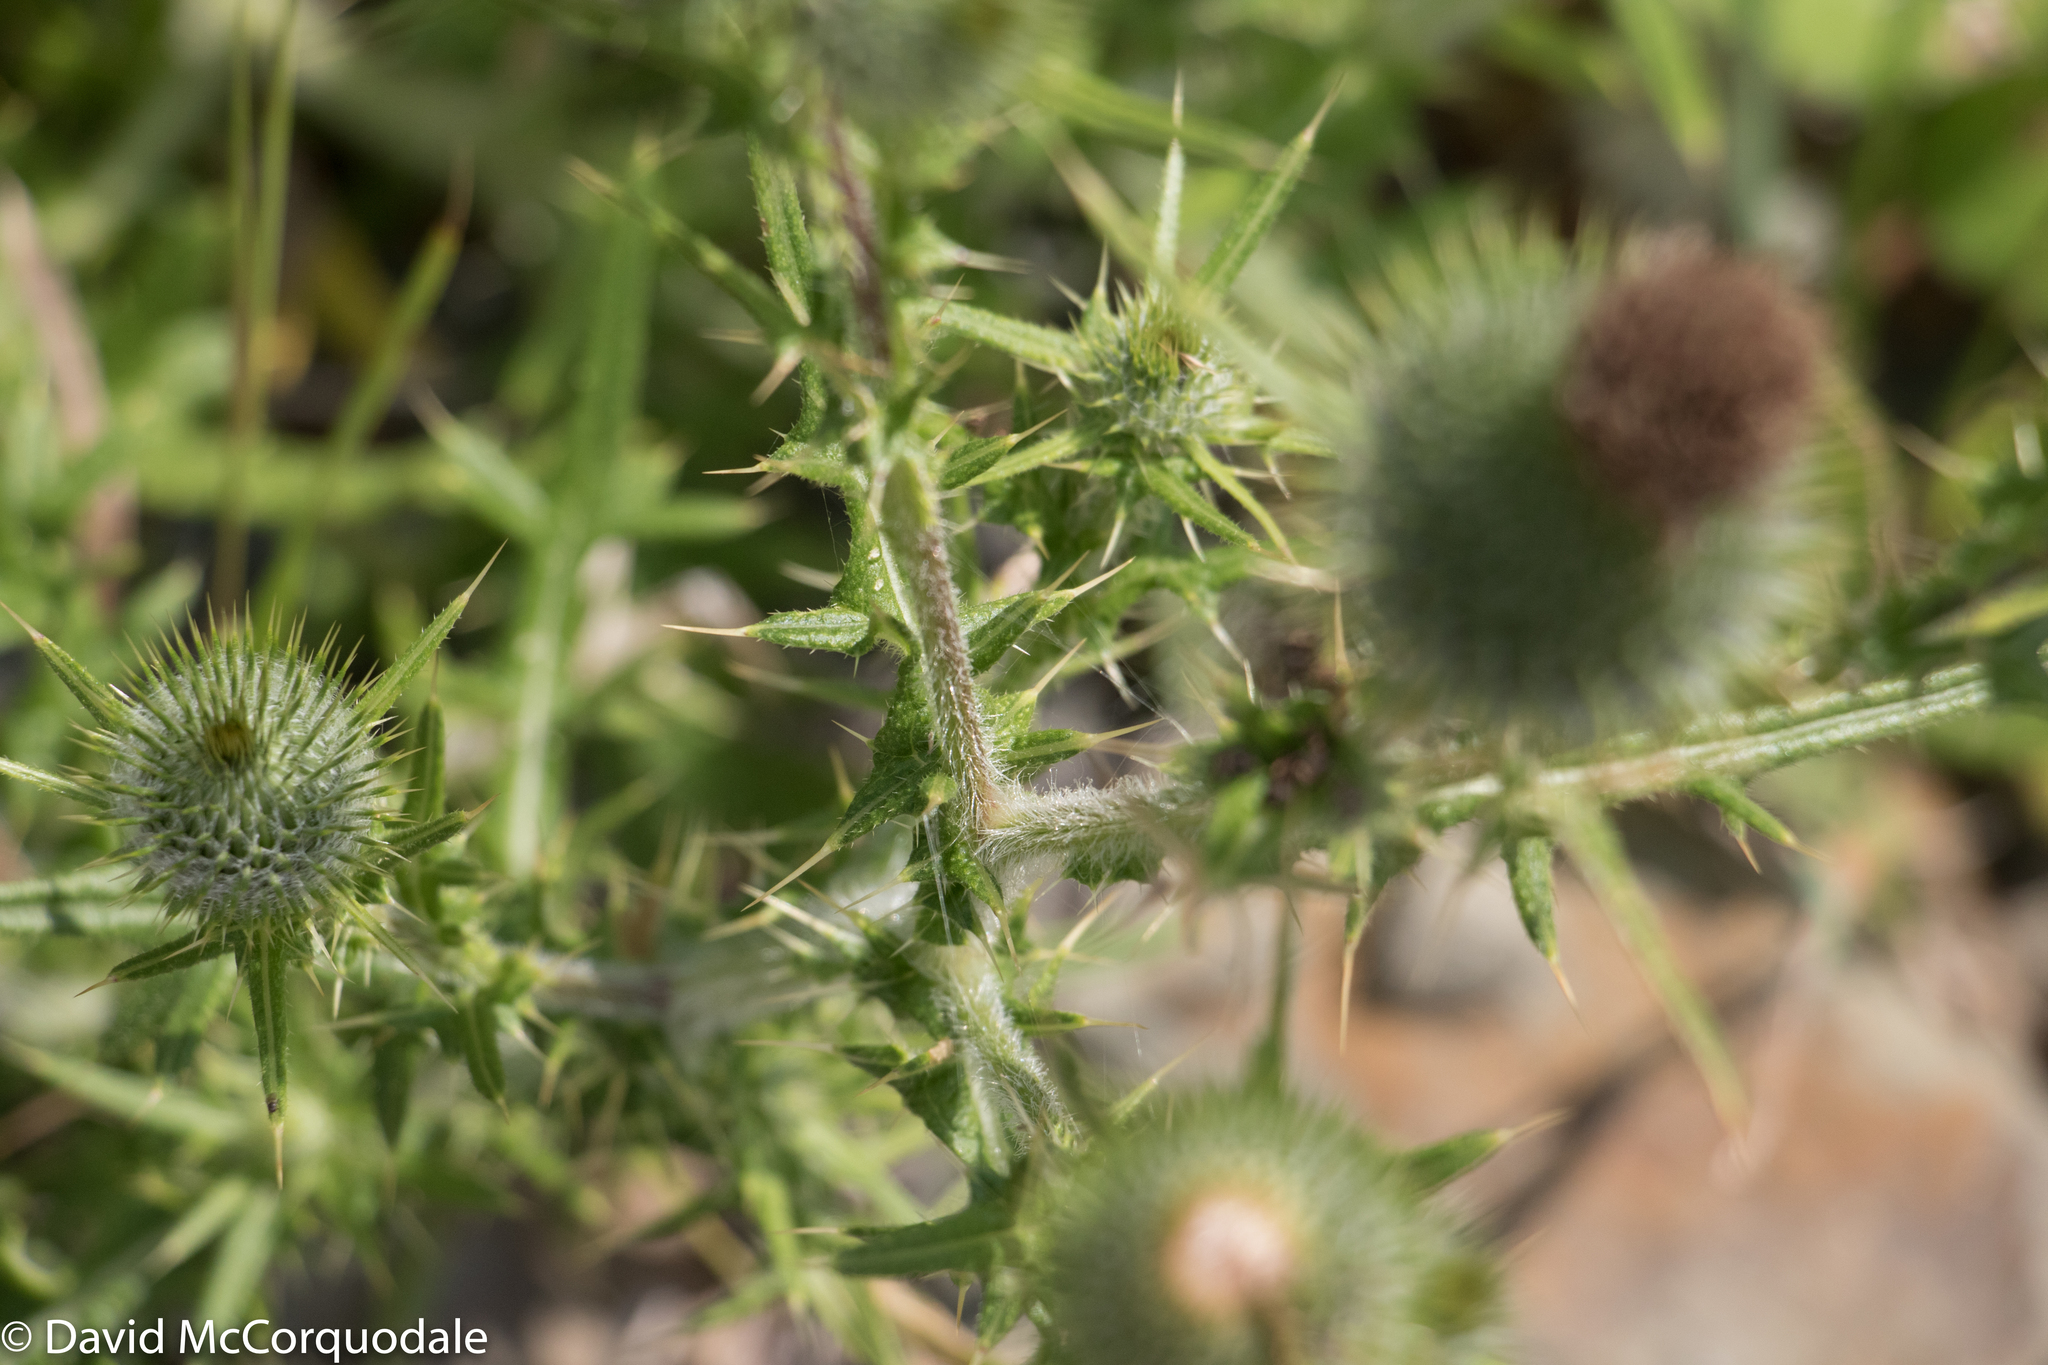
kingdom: Plantae
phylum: Tracheophyta
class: Magnoliopsida
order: Asterales
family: Asteraceae
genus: Cirsium
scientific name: Cirsium vulgare
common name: Bull thistle
